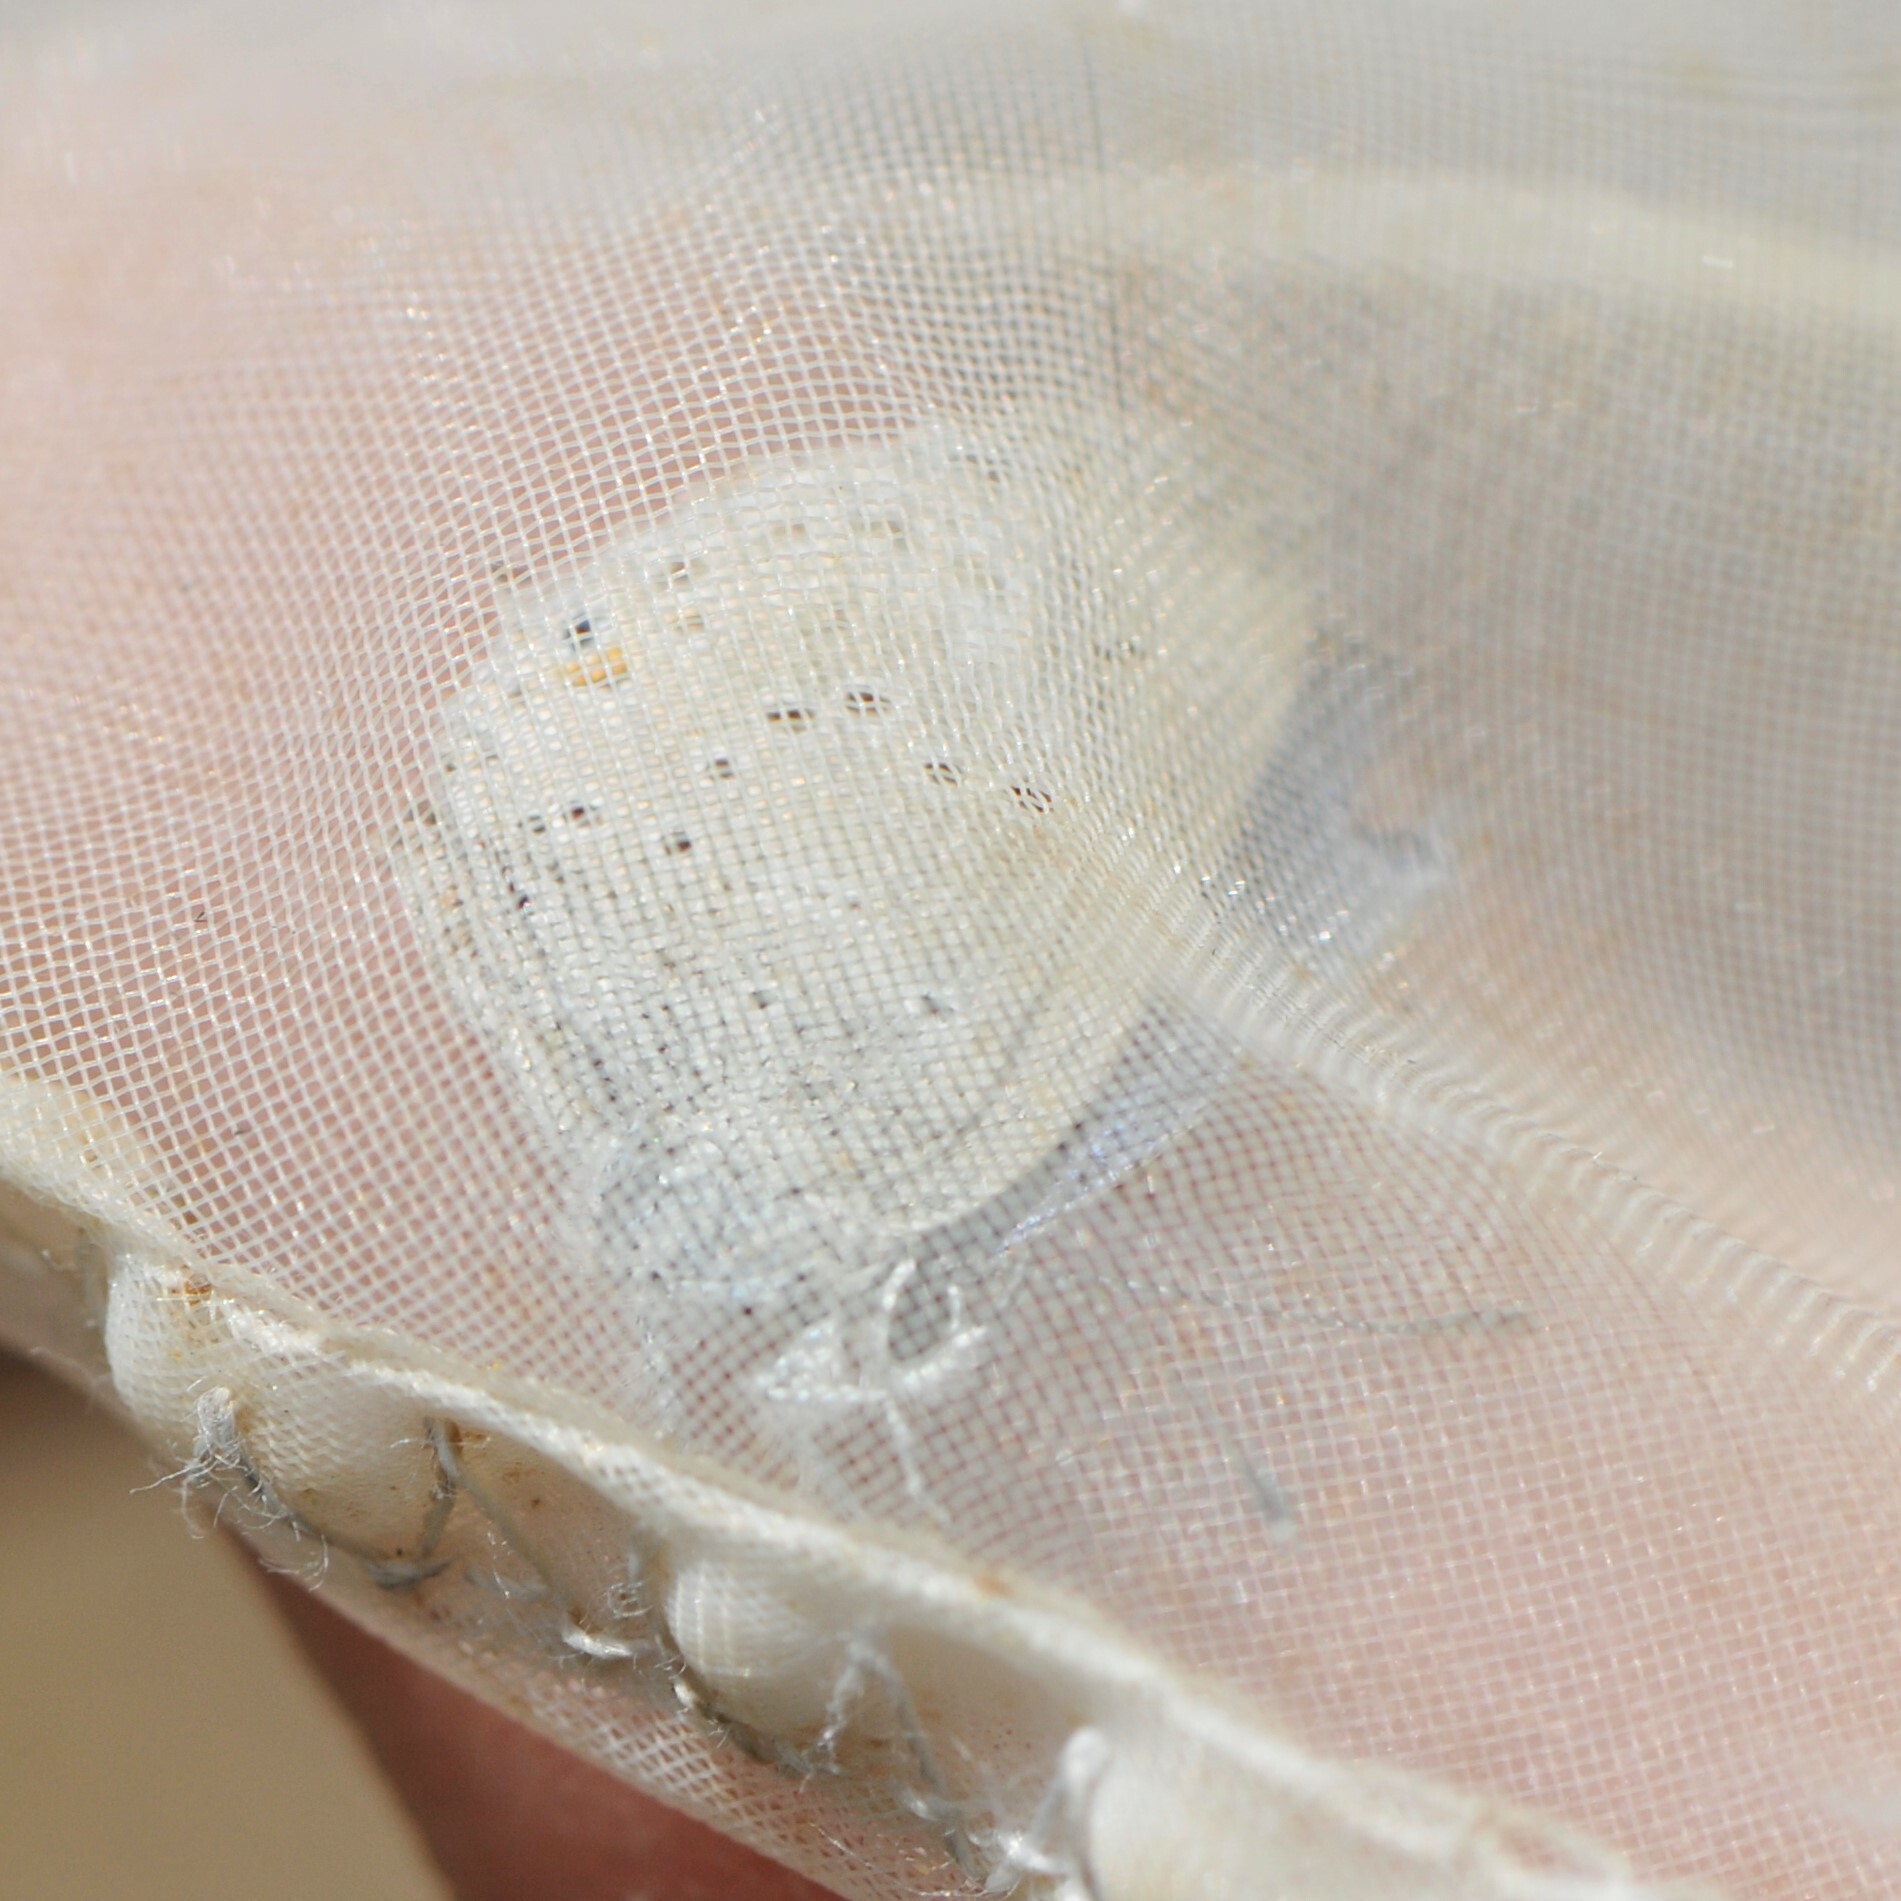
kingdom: Animalia
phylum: Arthropoda
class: Insecta
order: Lepidoptera
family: Lycaenidae
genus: Elkalyce
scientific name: Elkalyce amyntula
